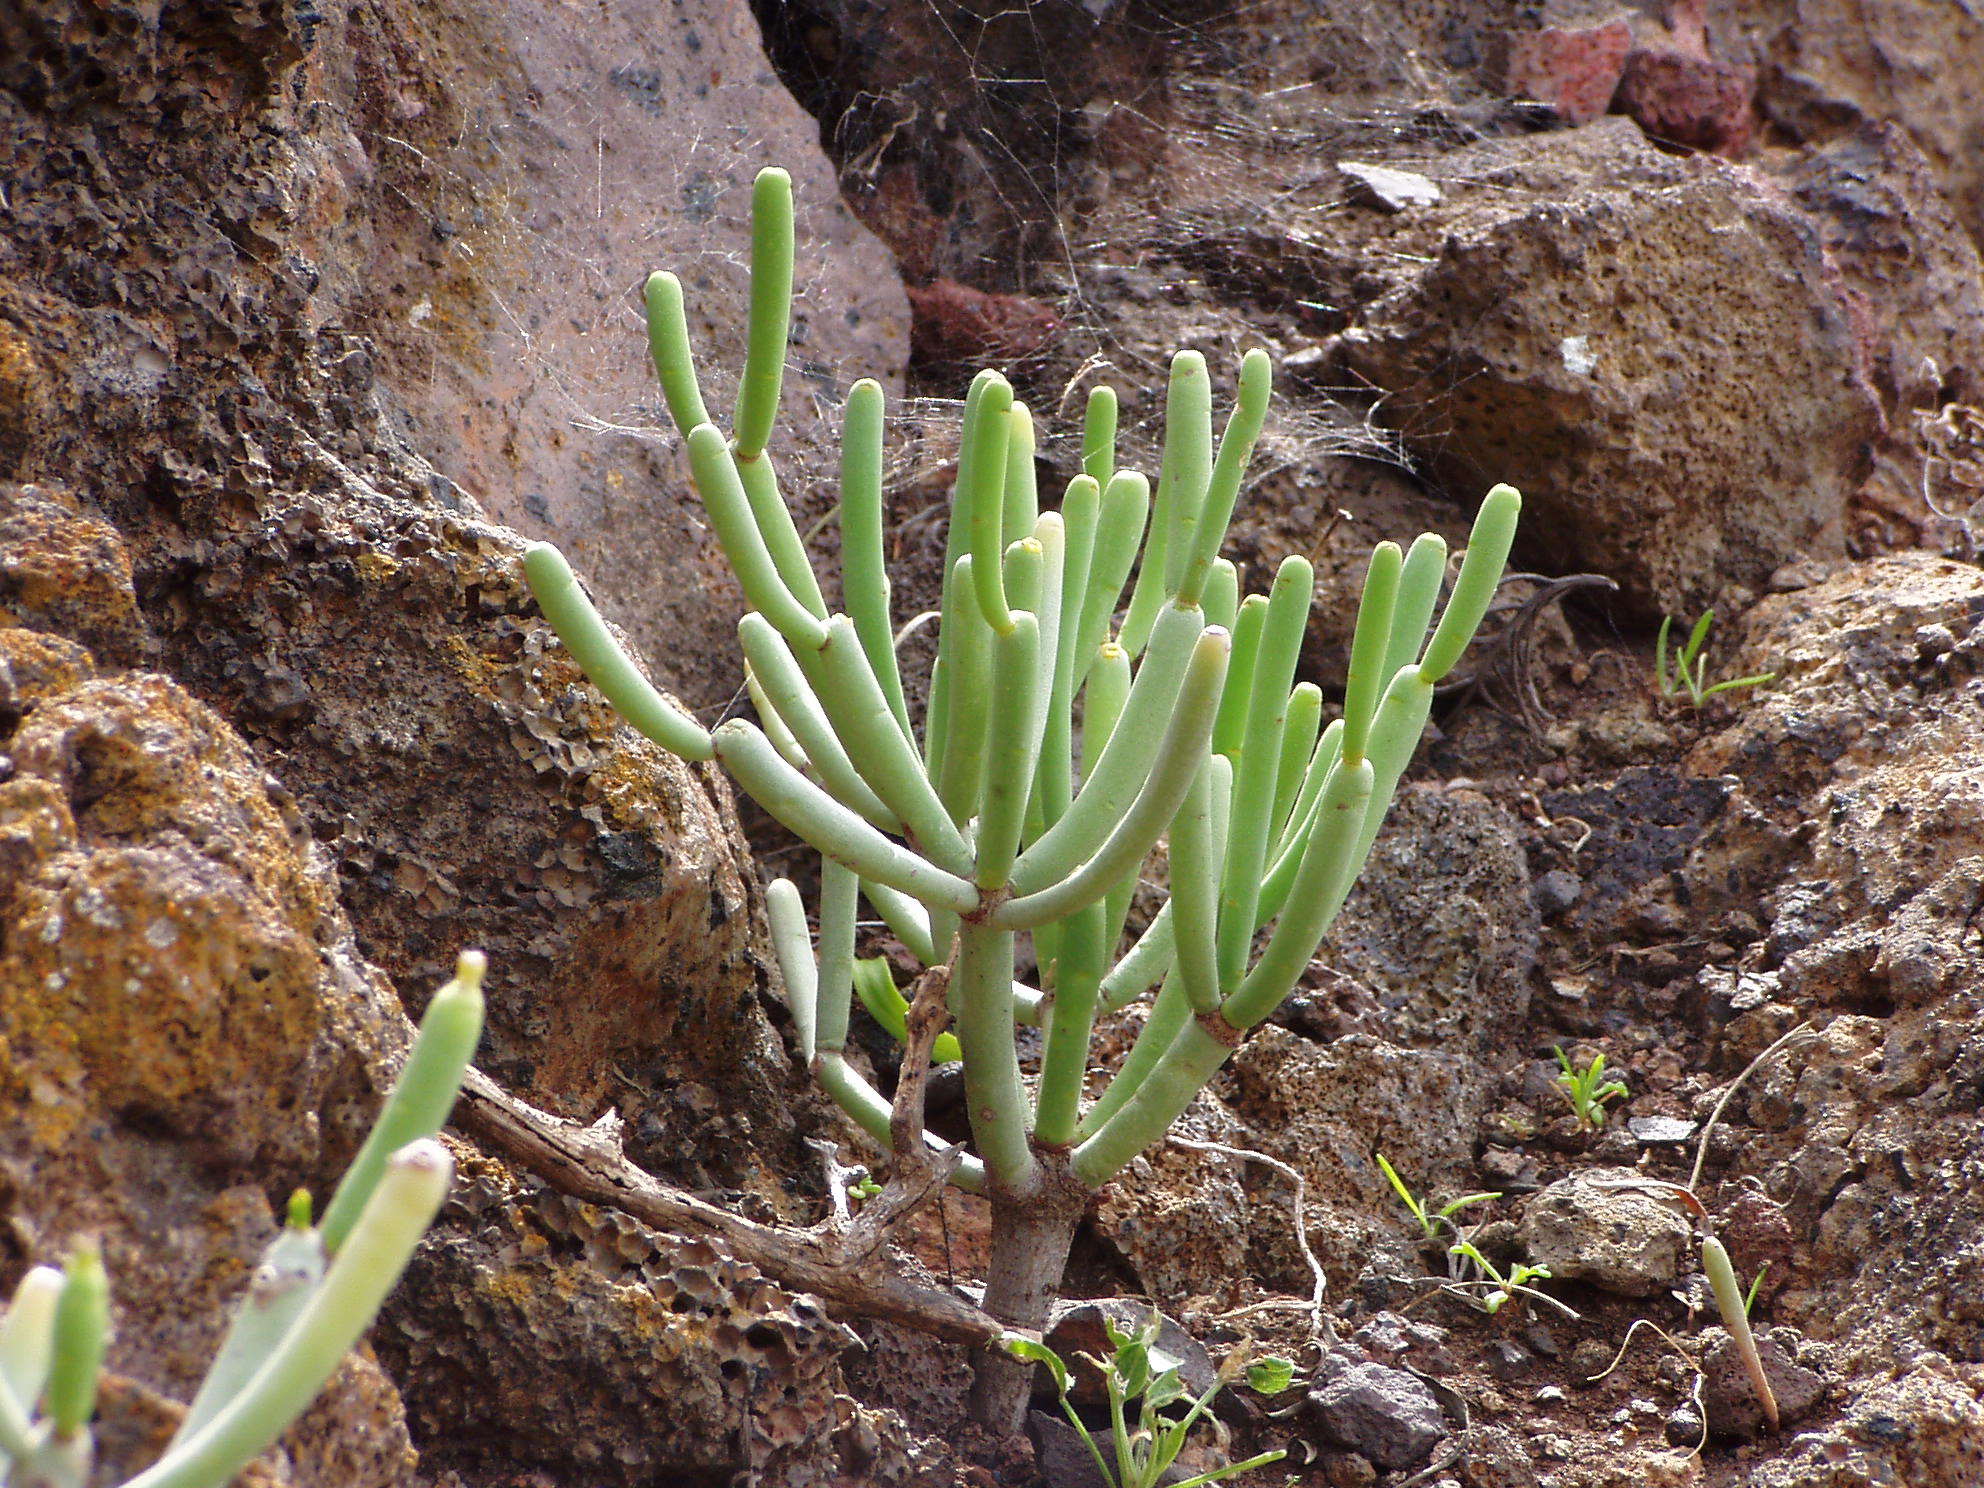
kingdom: Plantae
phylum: Tracheophyta
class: Magnoliopsida
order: Malpighiales
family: Euphorbiaceae
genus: Euphorbia
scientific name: Euphorbia aphylla
